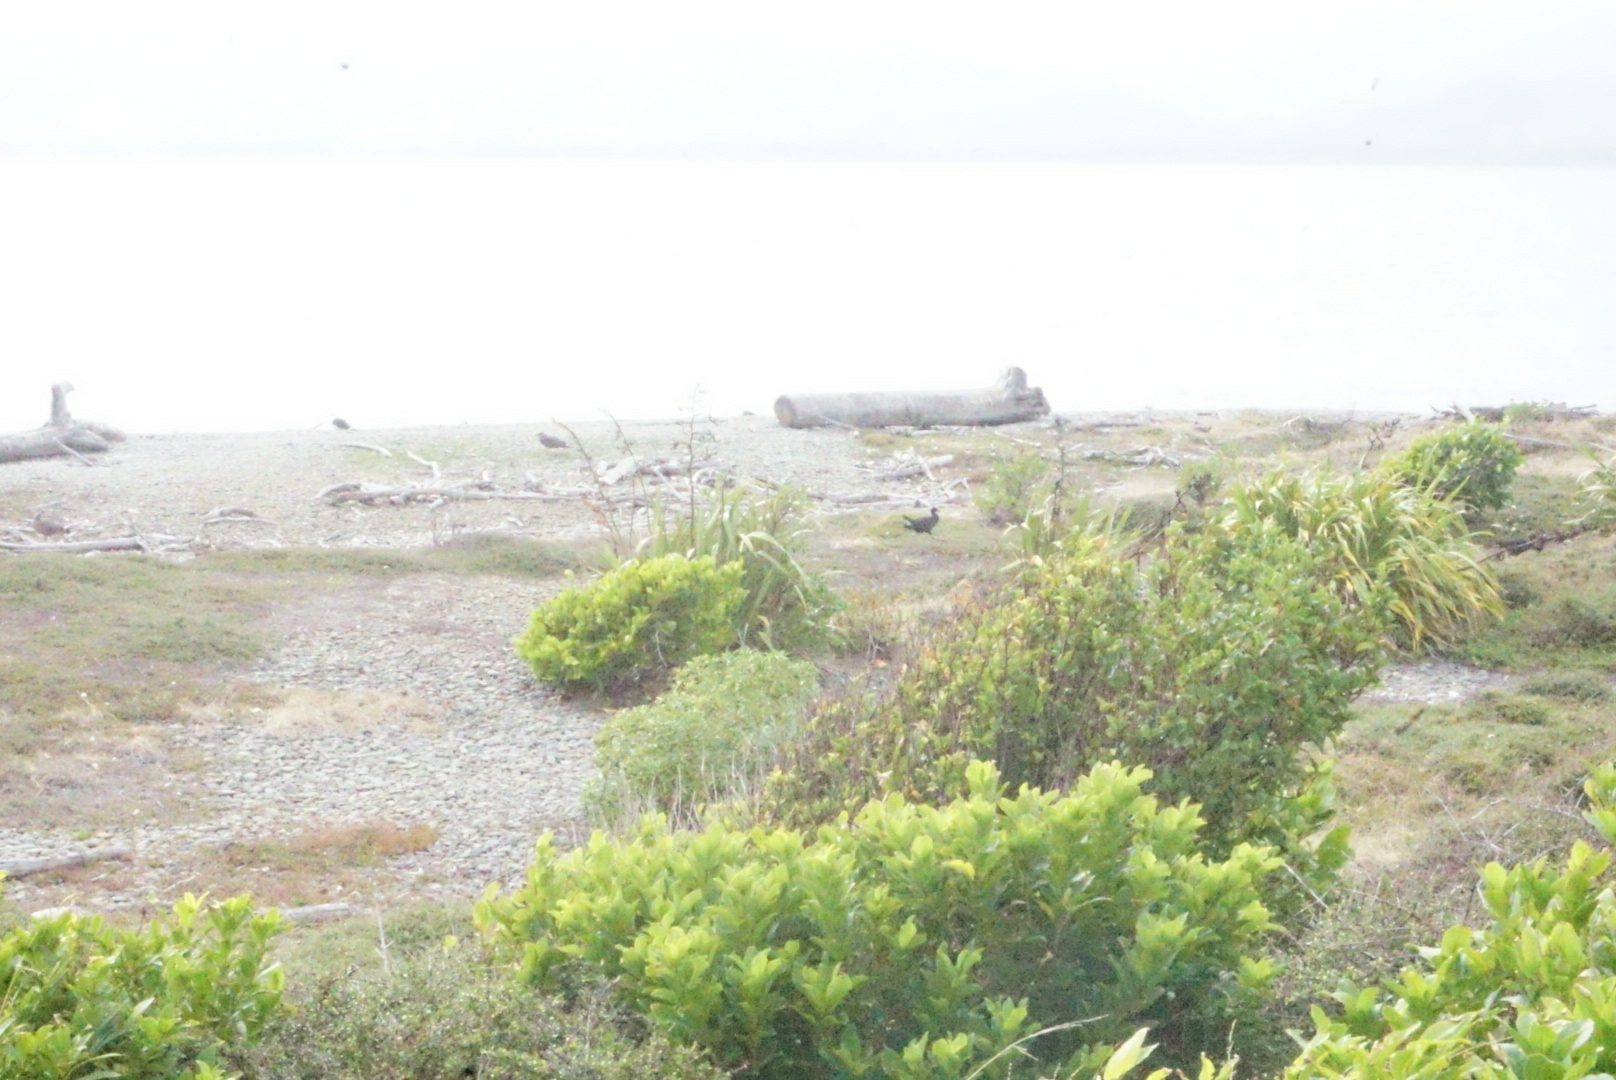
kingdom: Animalia
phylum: Chordata
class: Aves
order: Gruiformes
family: Rallidae
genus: Porphyrio
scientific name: Porphyrio melanotus
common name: Australasian swamphen
